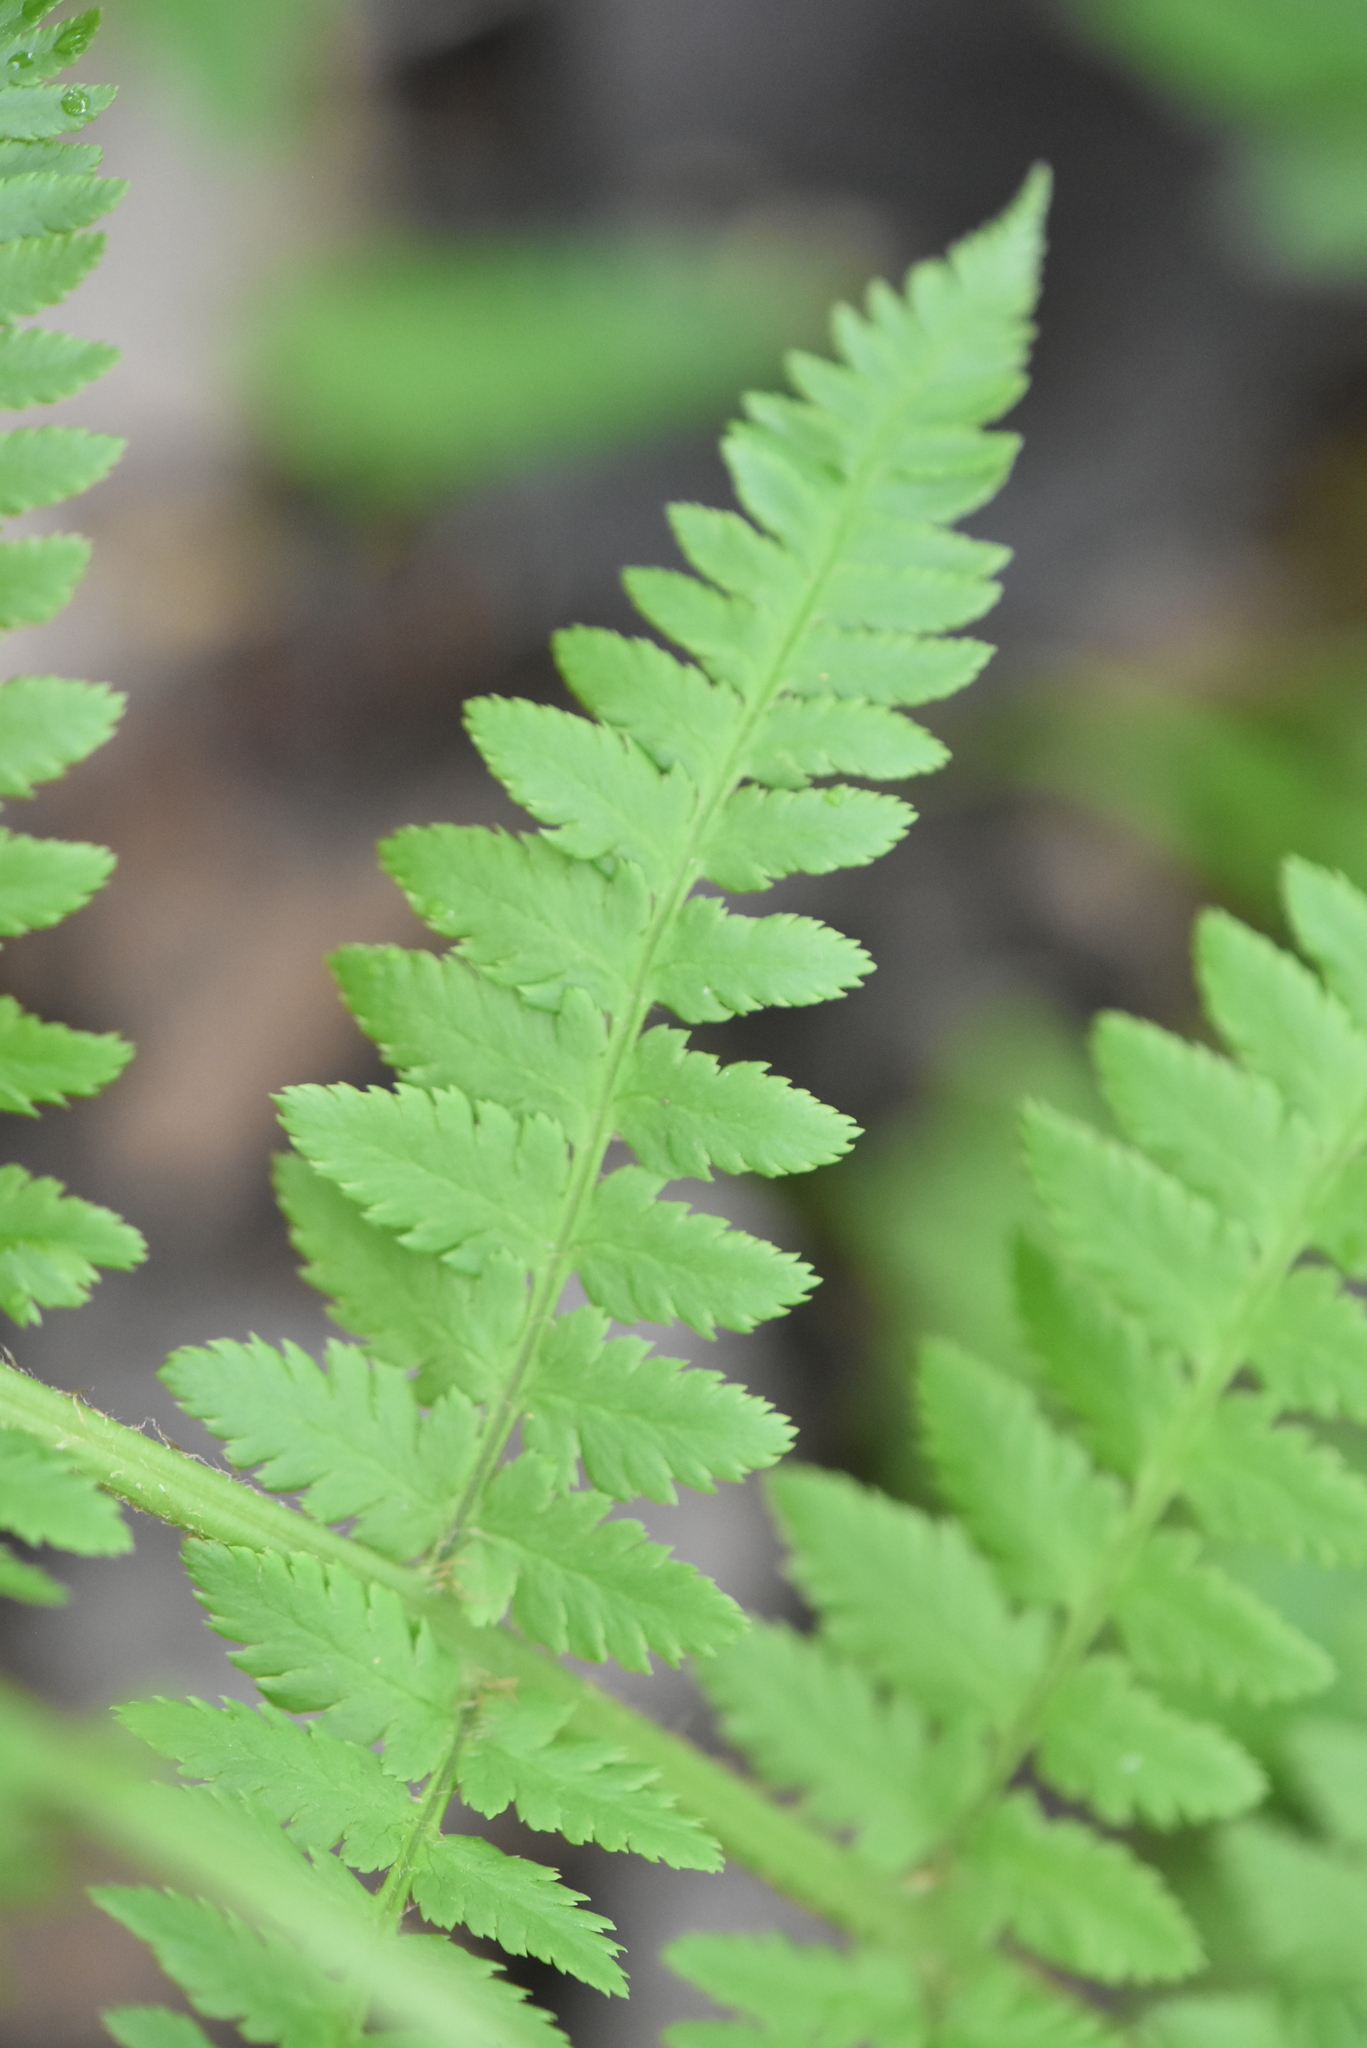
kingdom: Plantae
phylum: Tracheophyta
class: Polypodiopsida
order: Polypodiales
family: Dryopteridaceae
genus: Dryopteris
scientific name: Dryopteris carthusiana
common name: Narrow buckler-fern
